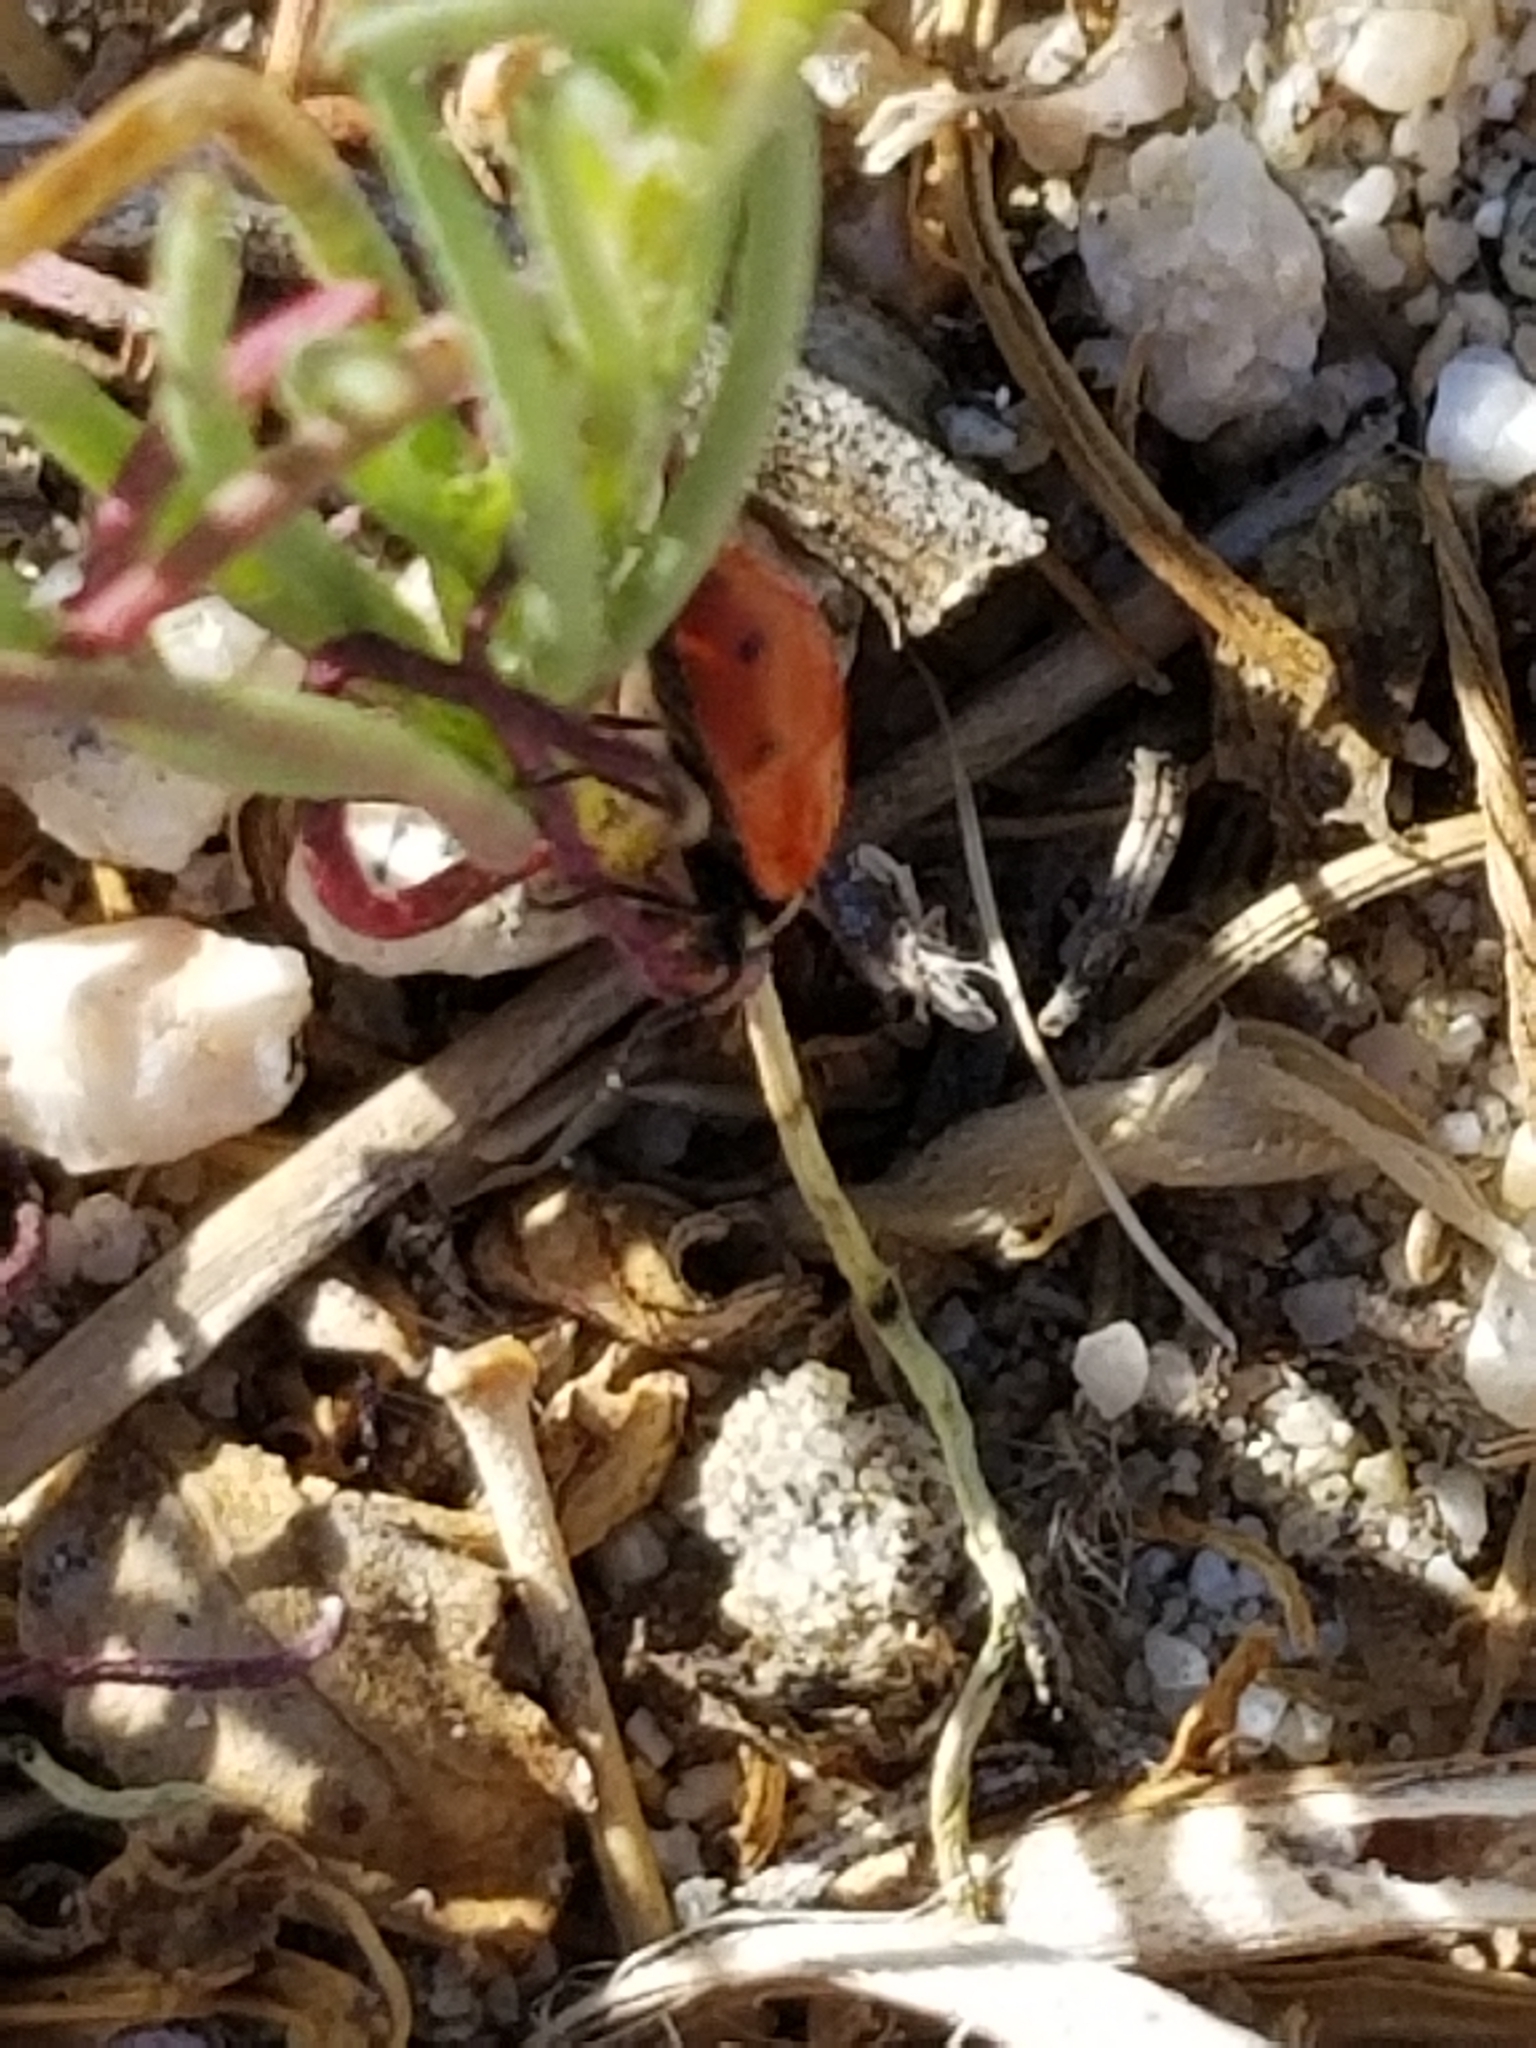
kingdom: Animalia
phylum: Arthropoda
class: Insecta
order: Coleoptera
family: Coccinellidae
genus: Hippodamia
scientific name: Hippodamia convergens
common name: Convergent lady beetle
